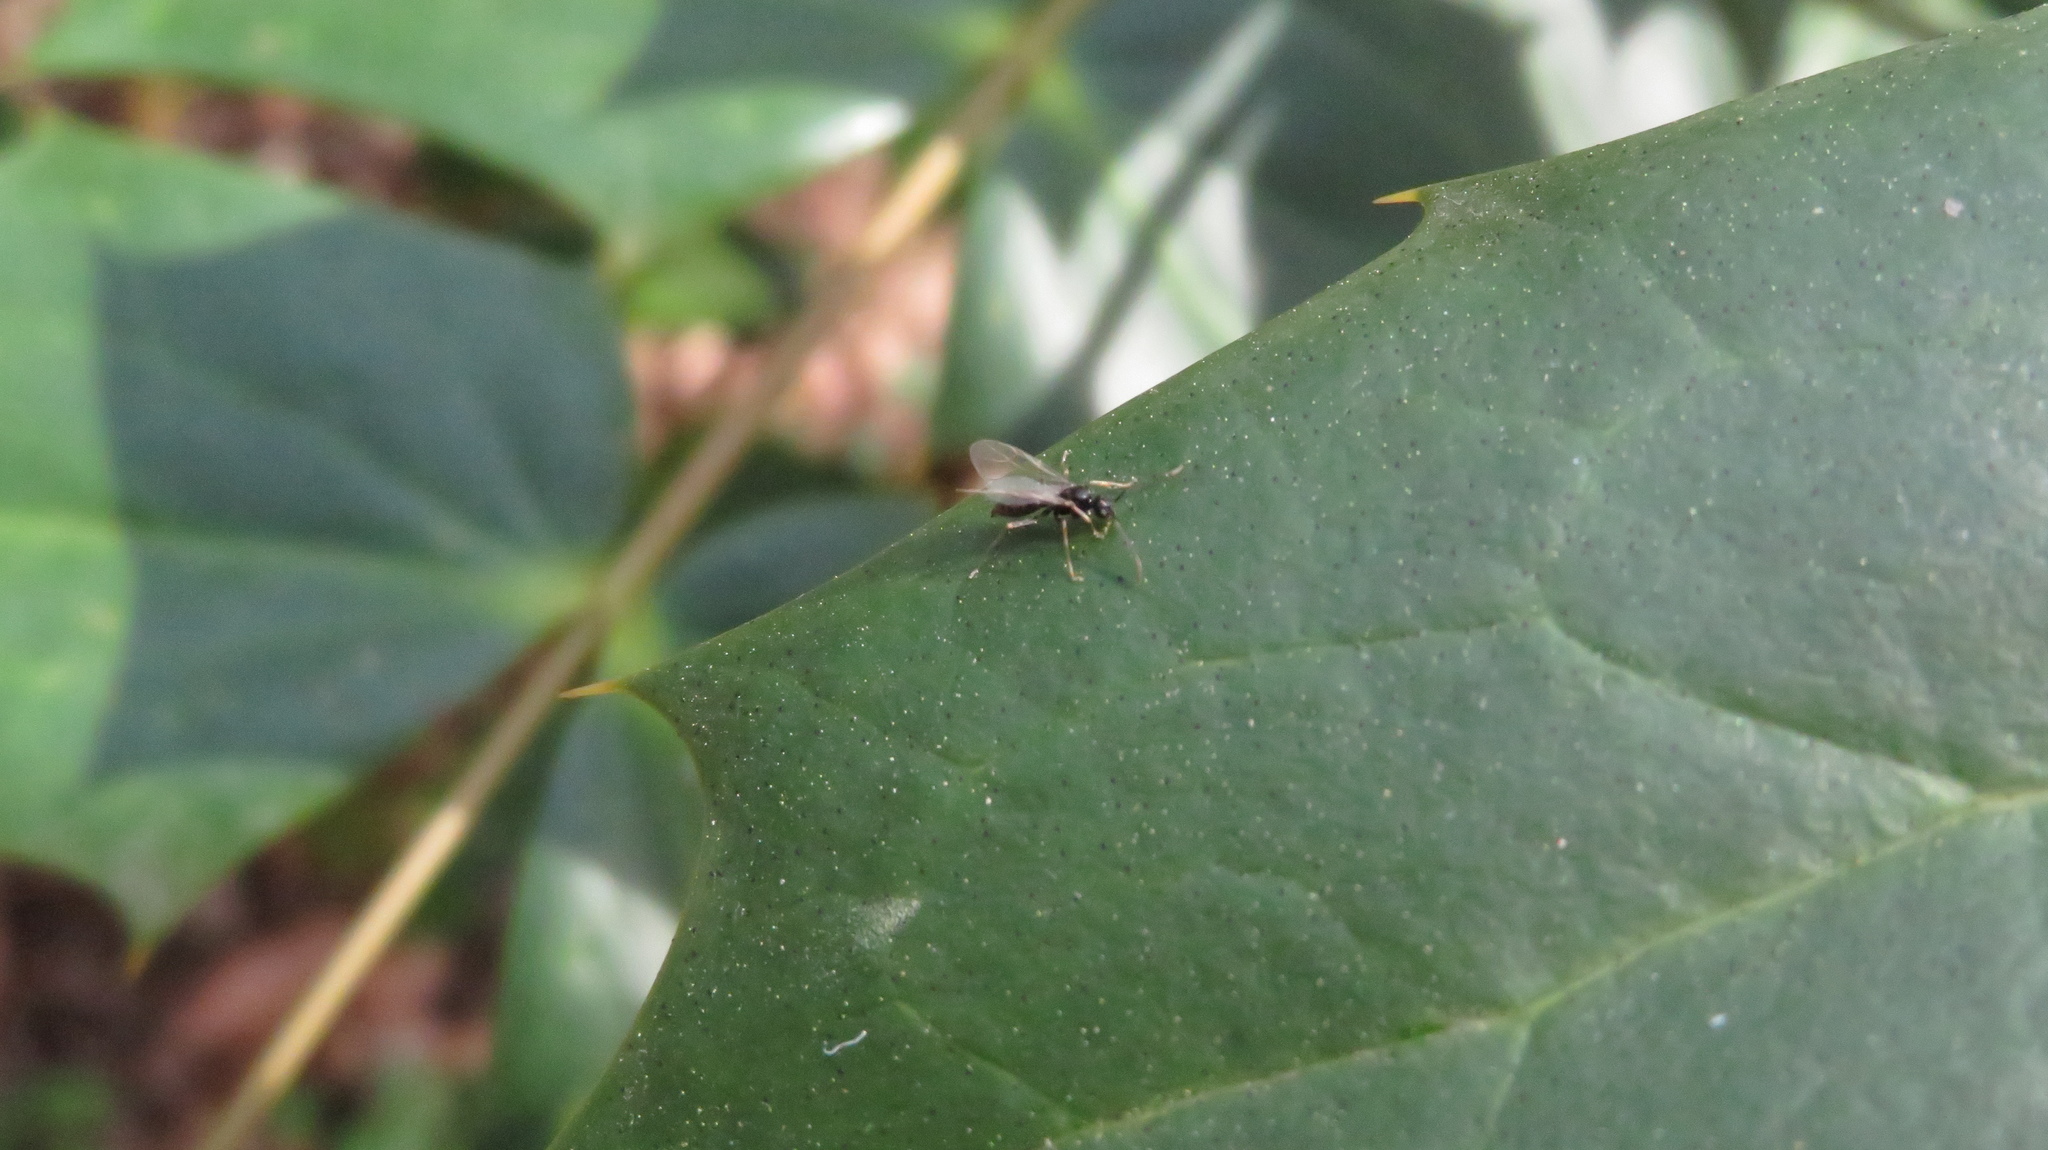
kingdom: Animalia
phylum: Arthropoda
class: Insecta
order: Hymenoptera
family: Formicidae
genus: Prenolepis
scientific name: Prenolepis imparis
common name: Small honey ant
